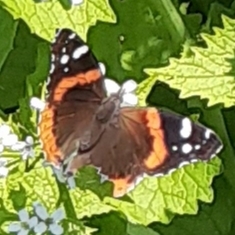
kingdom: Animalia
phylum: Arthropoda
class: Insecta
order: Lepidoptera
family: Nymphalidae
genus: Vanessa
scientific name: Vanessa atalanta
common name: Red admiral
